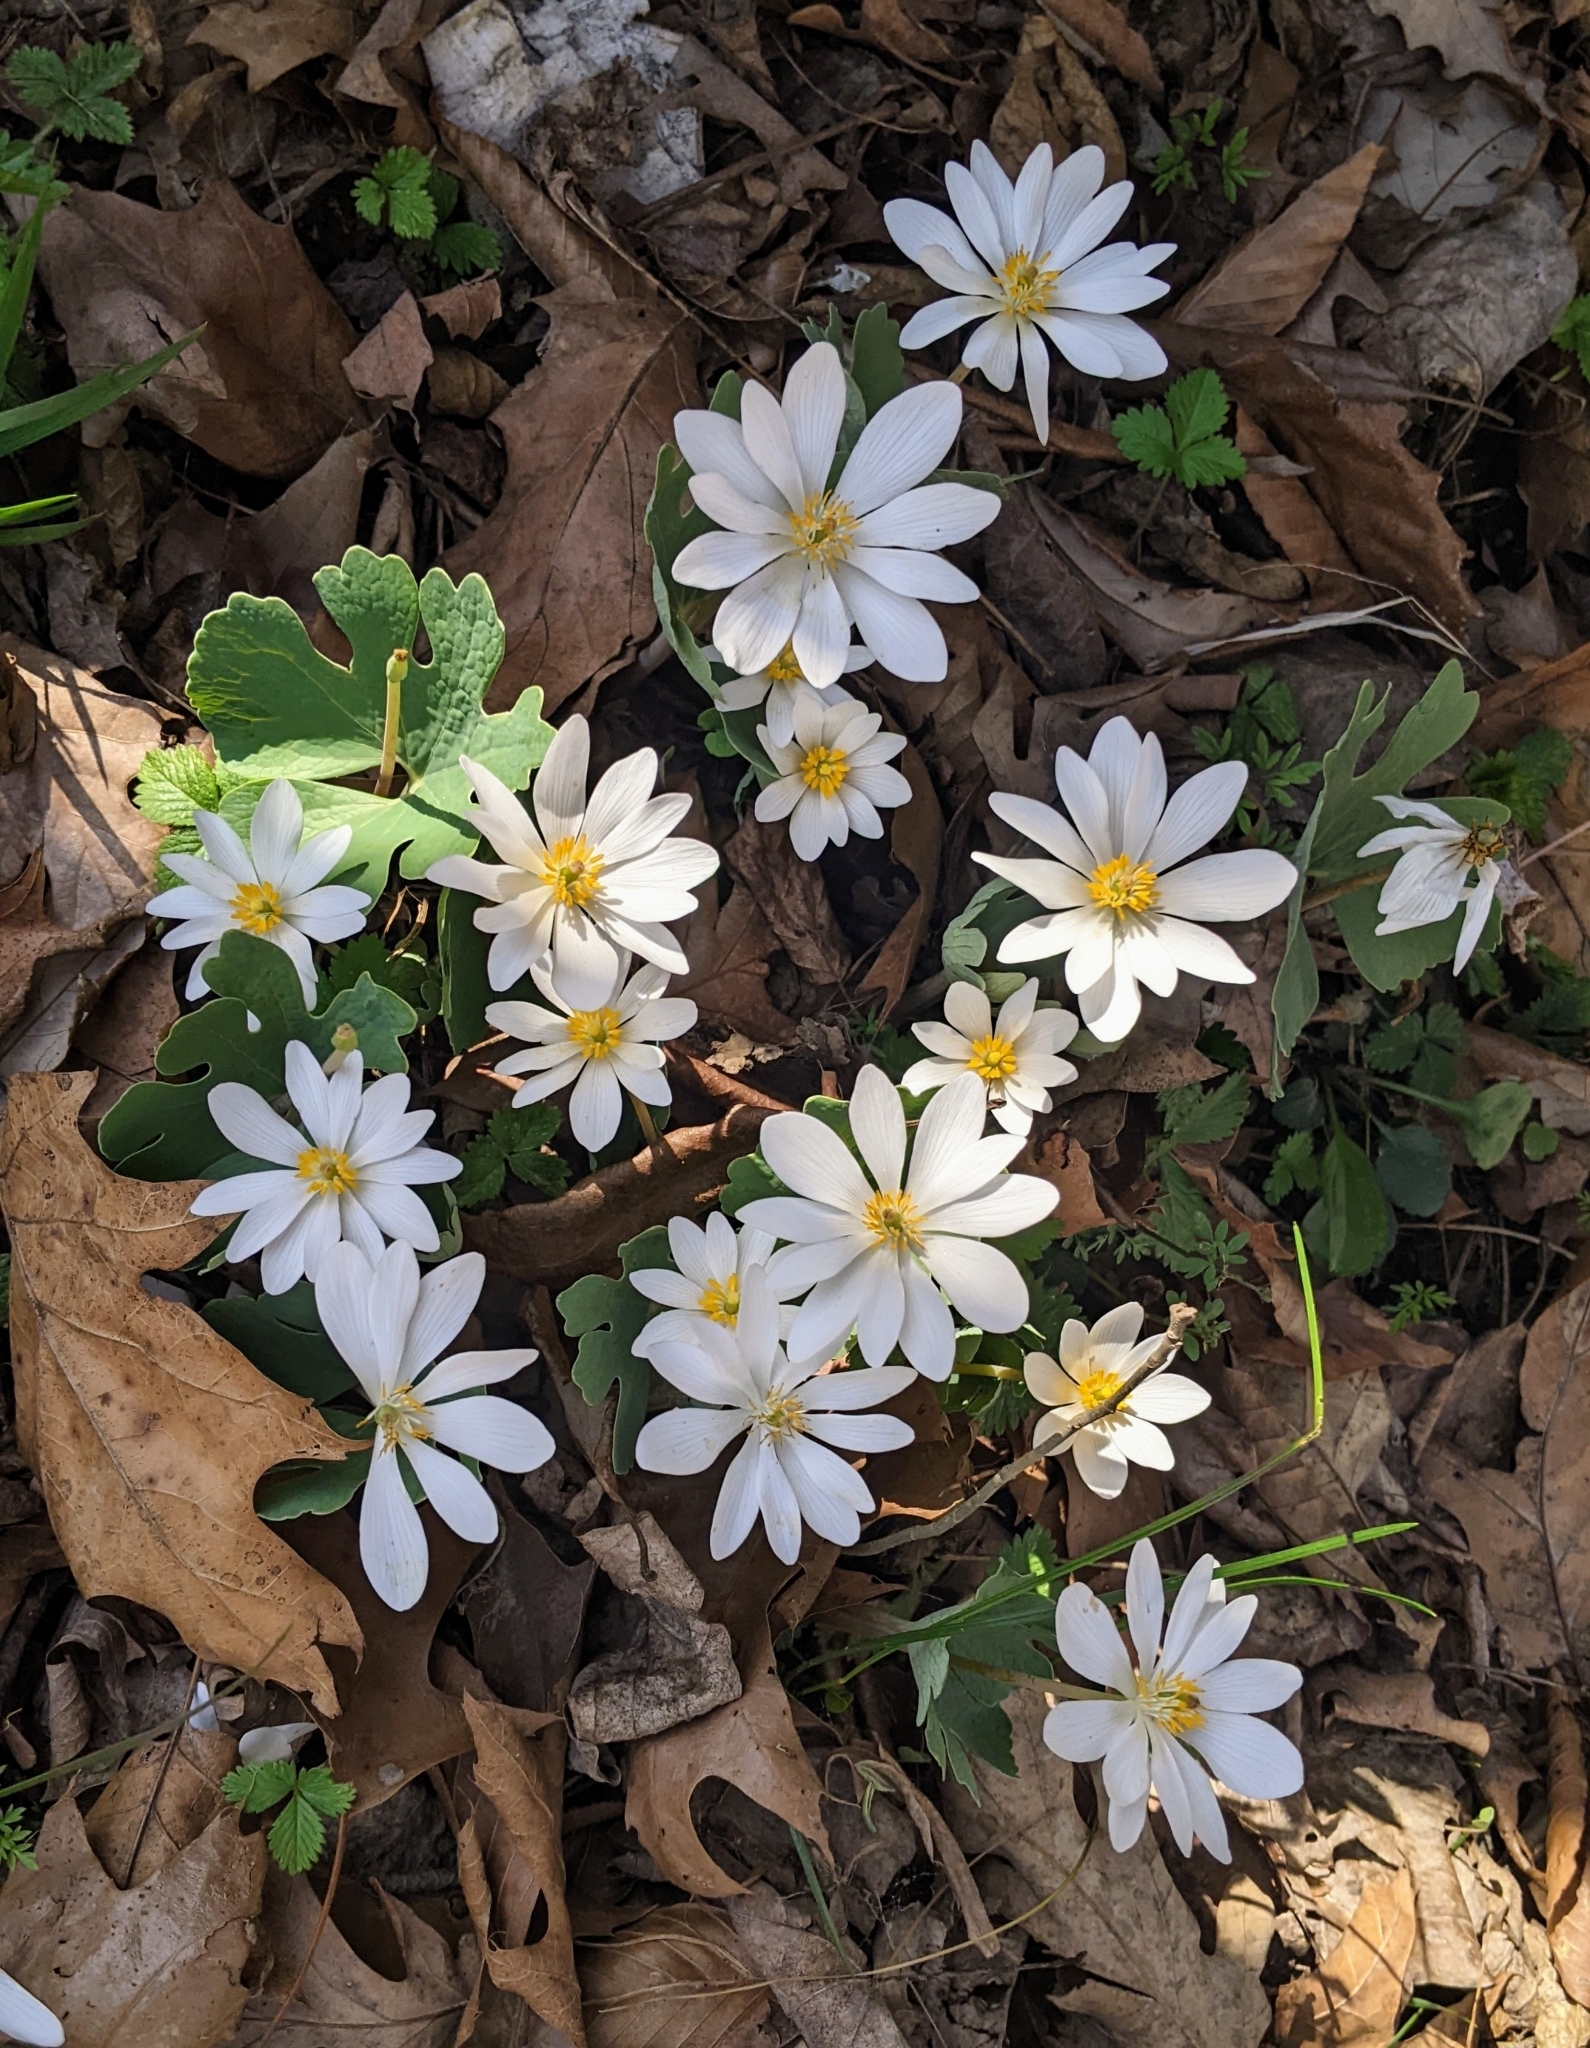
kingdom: Plantae
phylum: Tracheophyta
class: Magnoliopsida
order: Ranunculales
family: Papaveraceae
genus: Sanguinaria
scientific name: Sanguinaria canadensis
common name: Bloodroot
